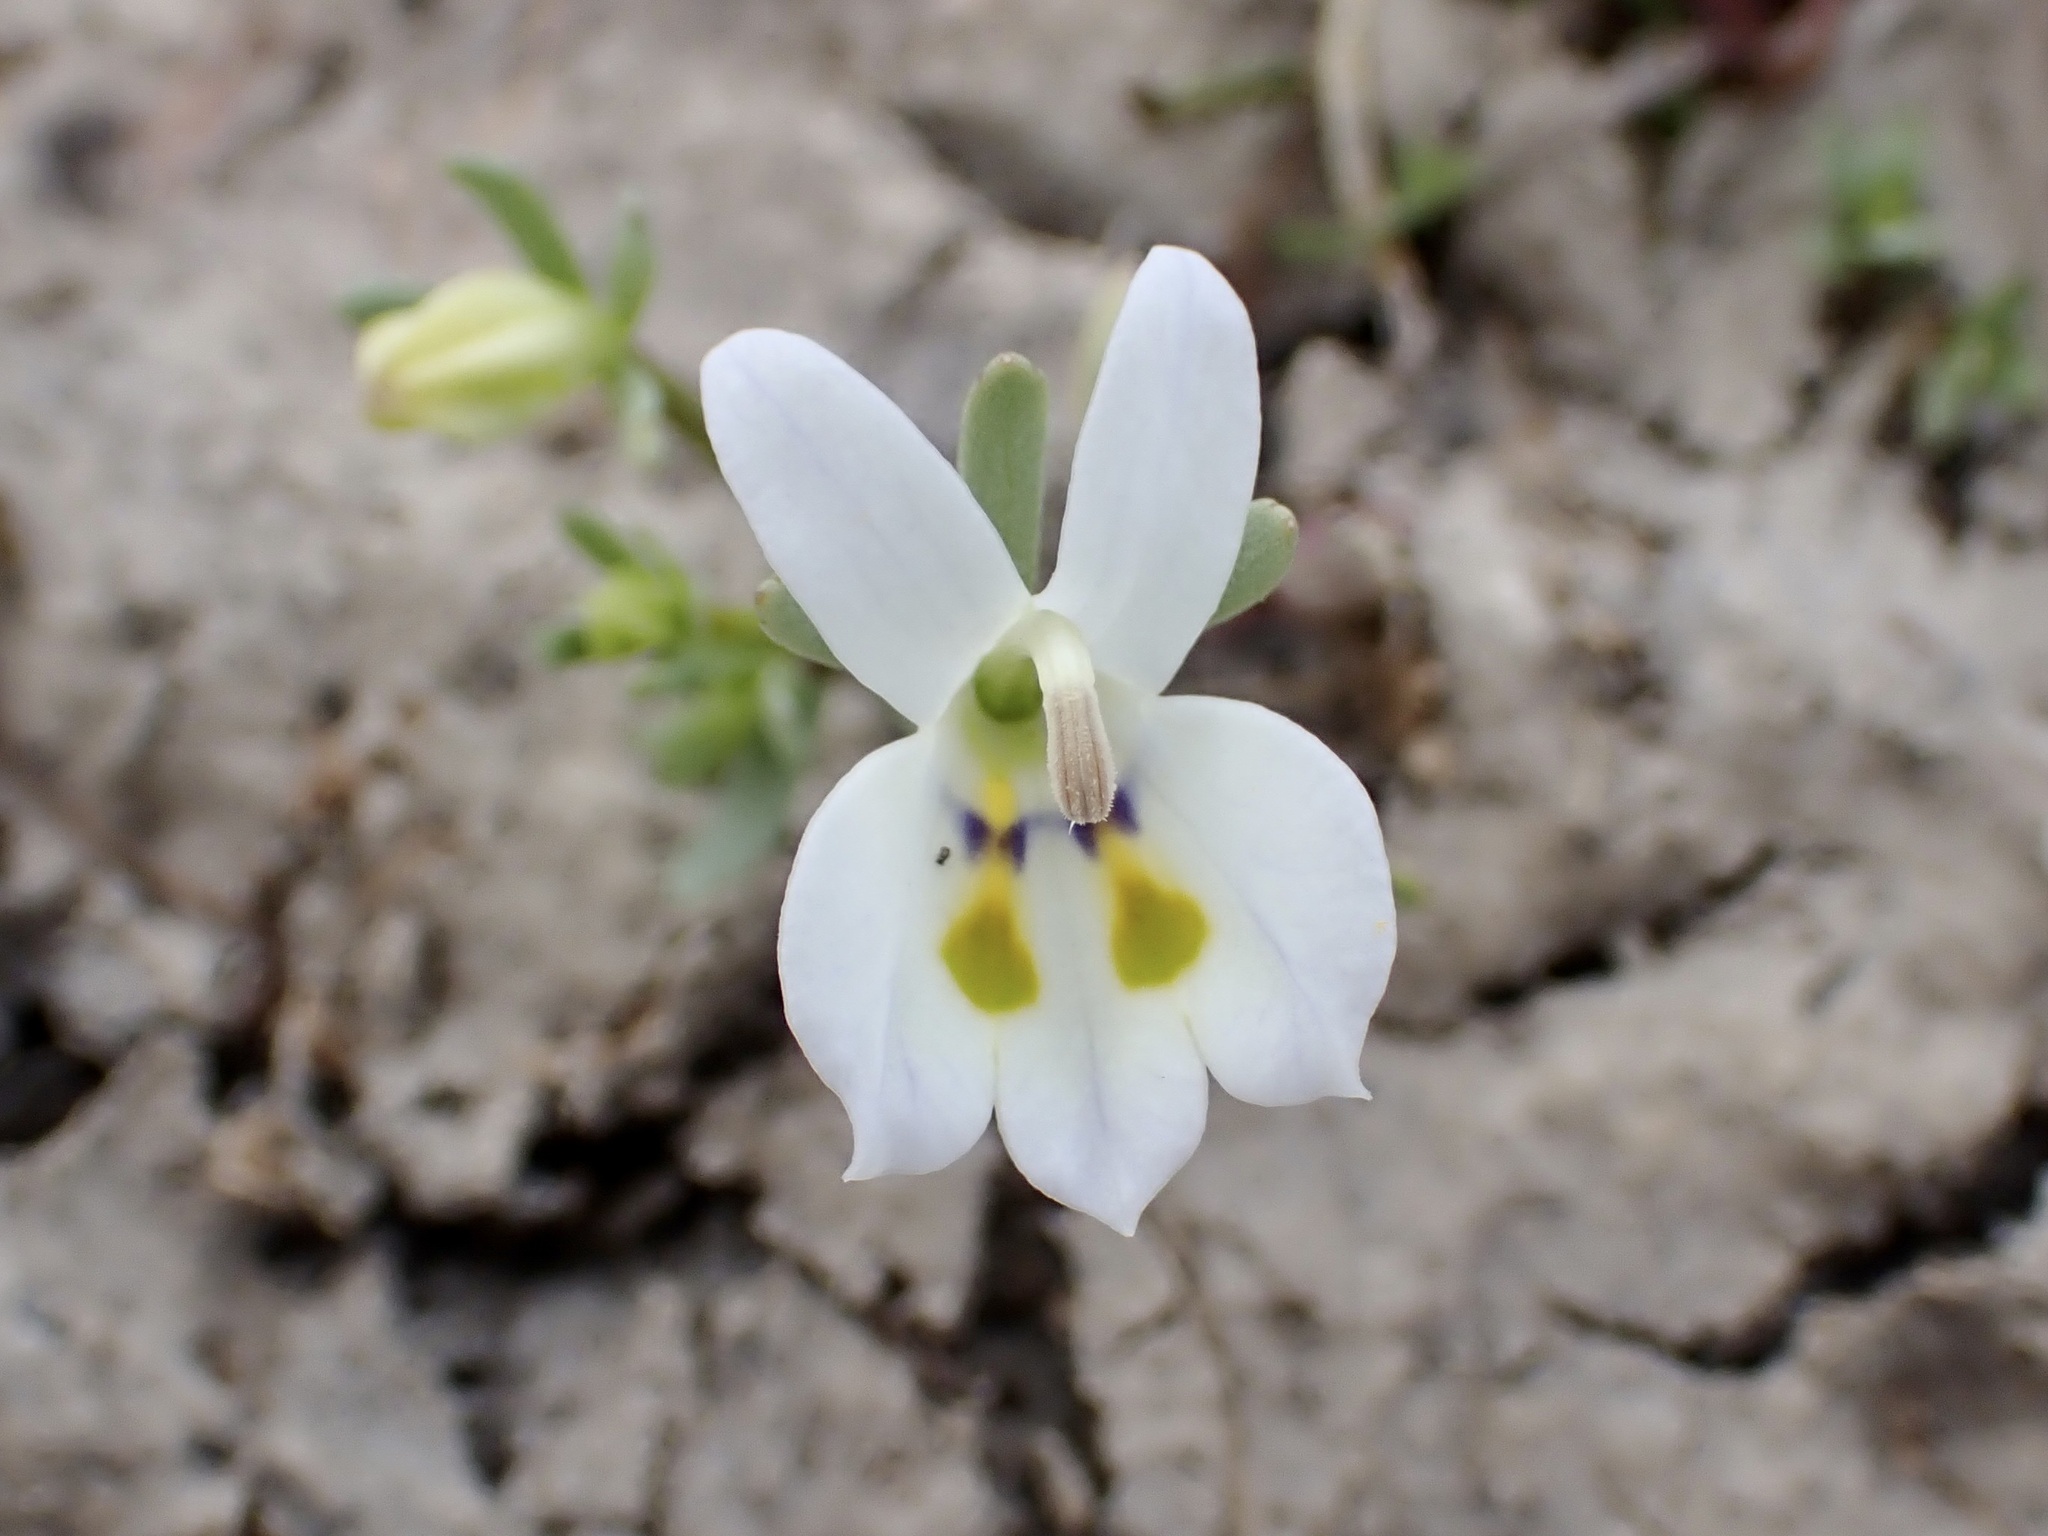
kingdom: Plantae
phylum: Tracheophyta
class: Magnoliopsida
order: Asterales
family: Campanulaceae
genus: Downingia
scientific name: Downingia insignis
